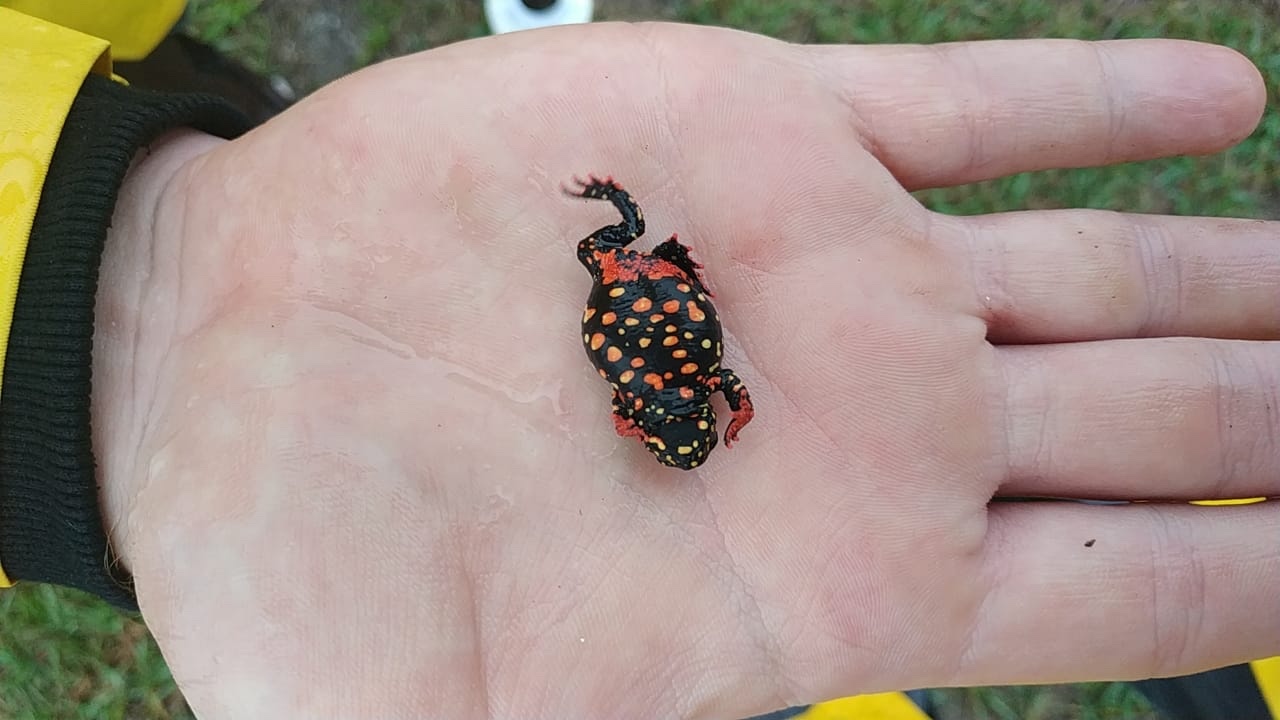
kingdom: Animalia
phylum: Chordata
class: Amphibia
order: Anura
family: Bufonidae
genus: Melanophryniscus
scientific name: Melanophryniscus fulvoguttatus
